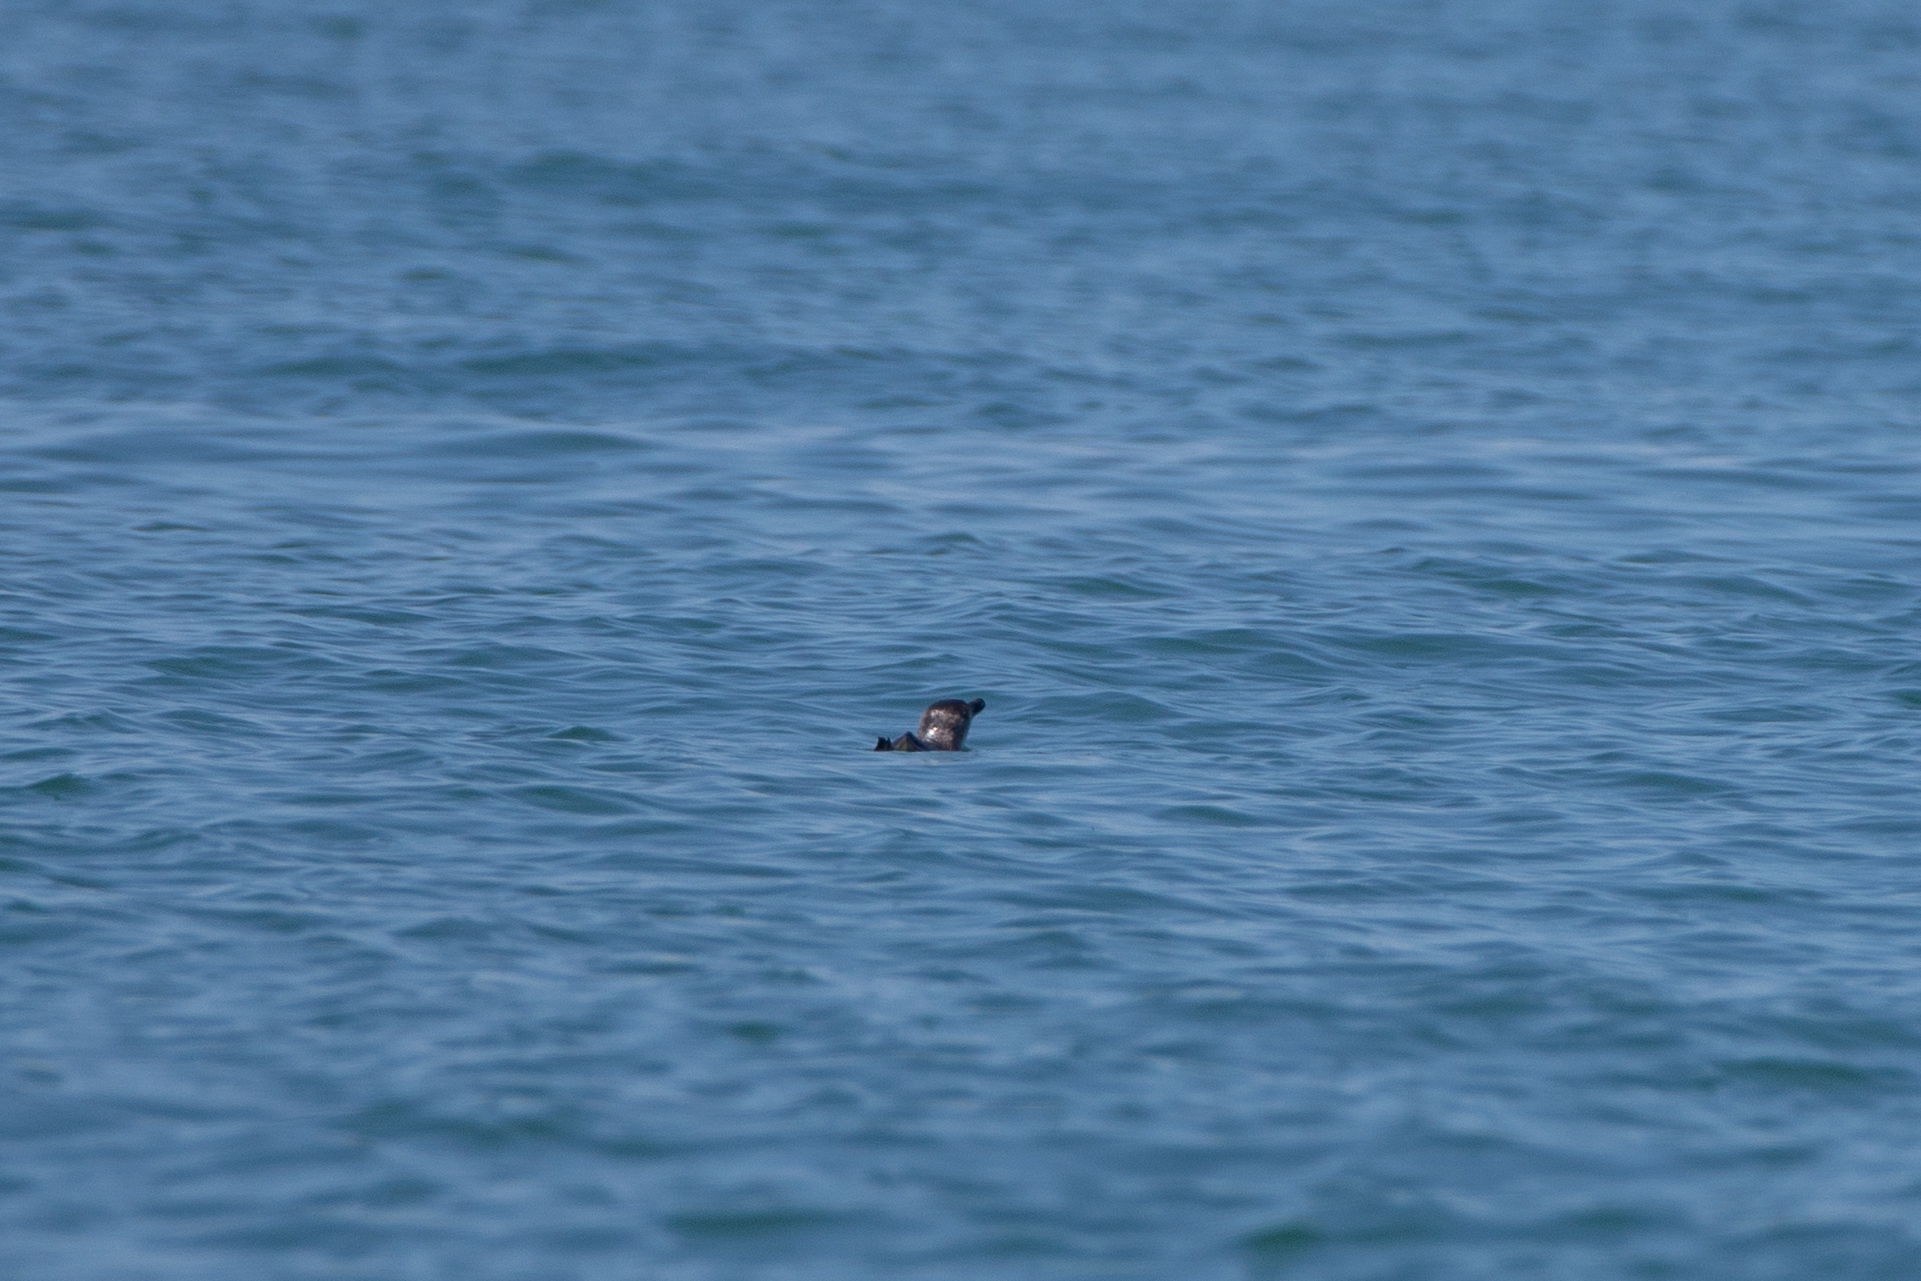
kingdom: Animalia
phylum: Chordata
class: Aves
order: Sphenisciformes
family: Spheniscidae
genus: Eudyptula
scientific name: Eudyptula minor
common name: Little penguin
